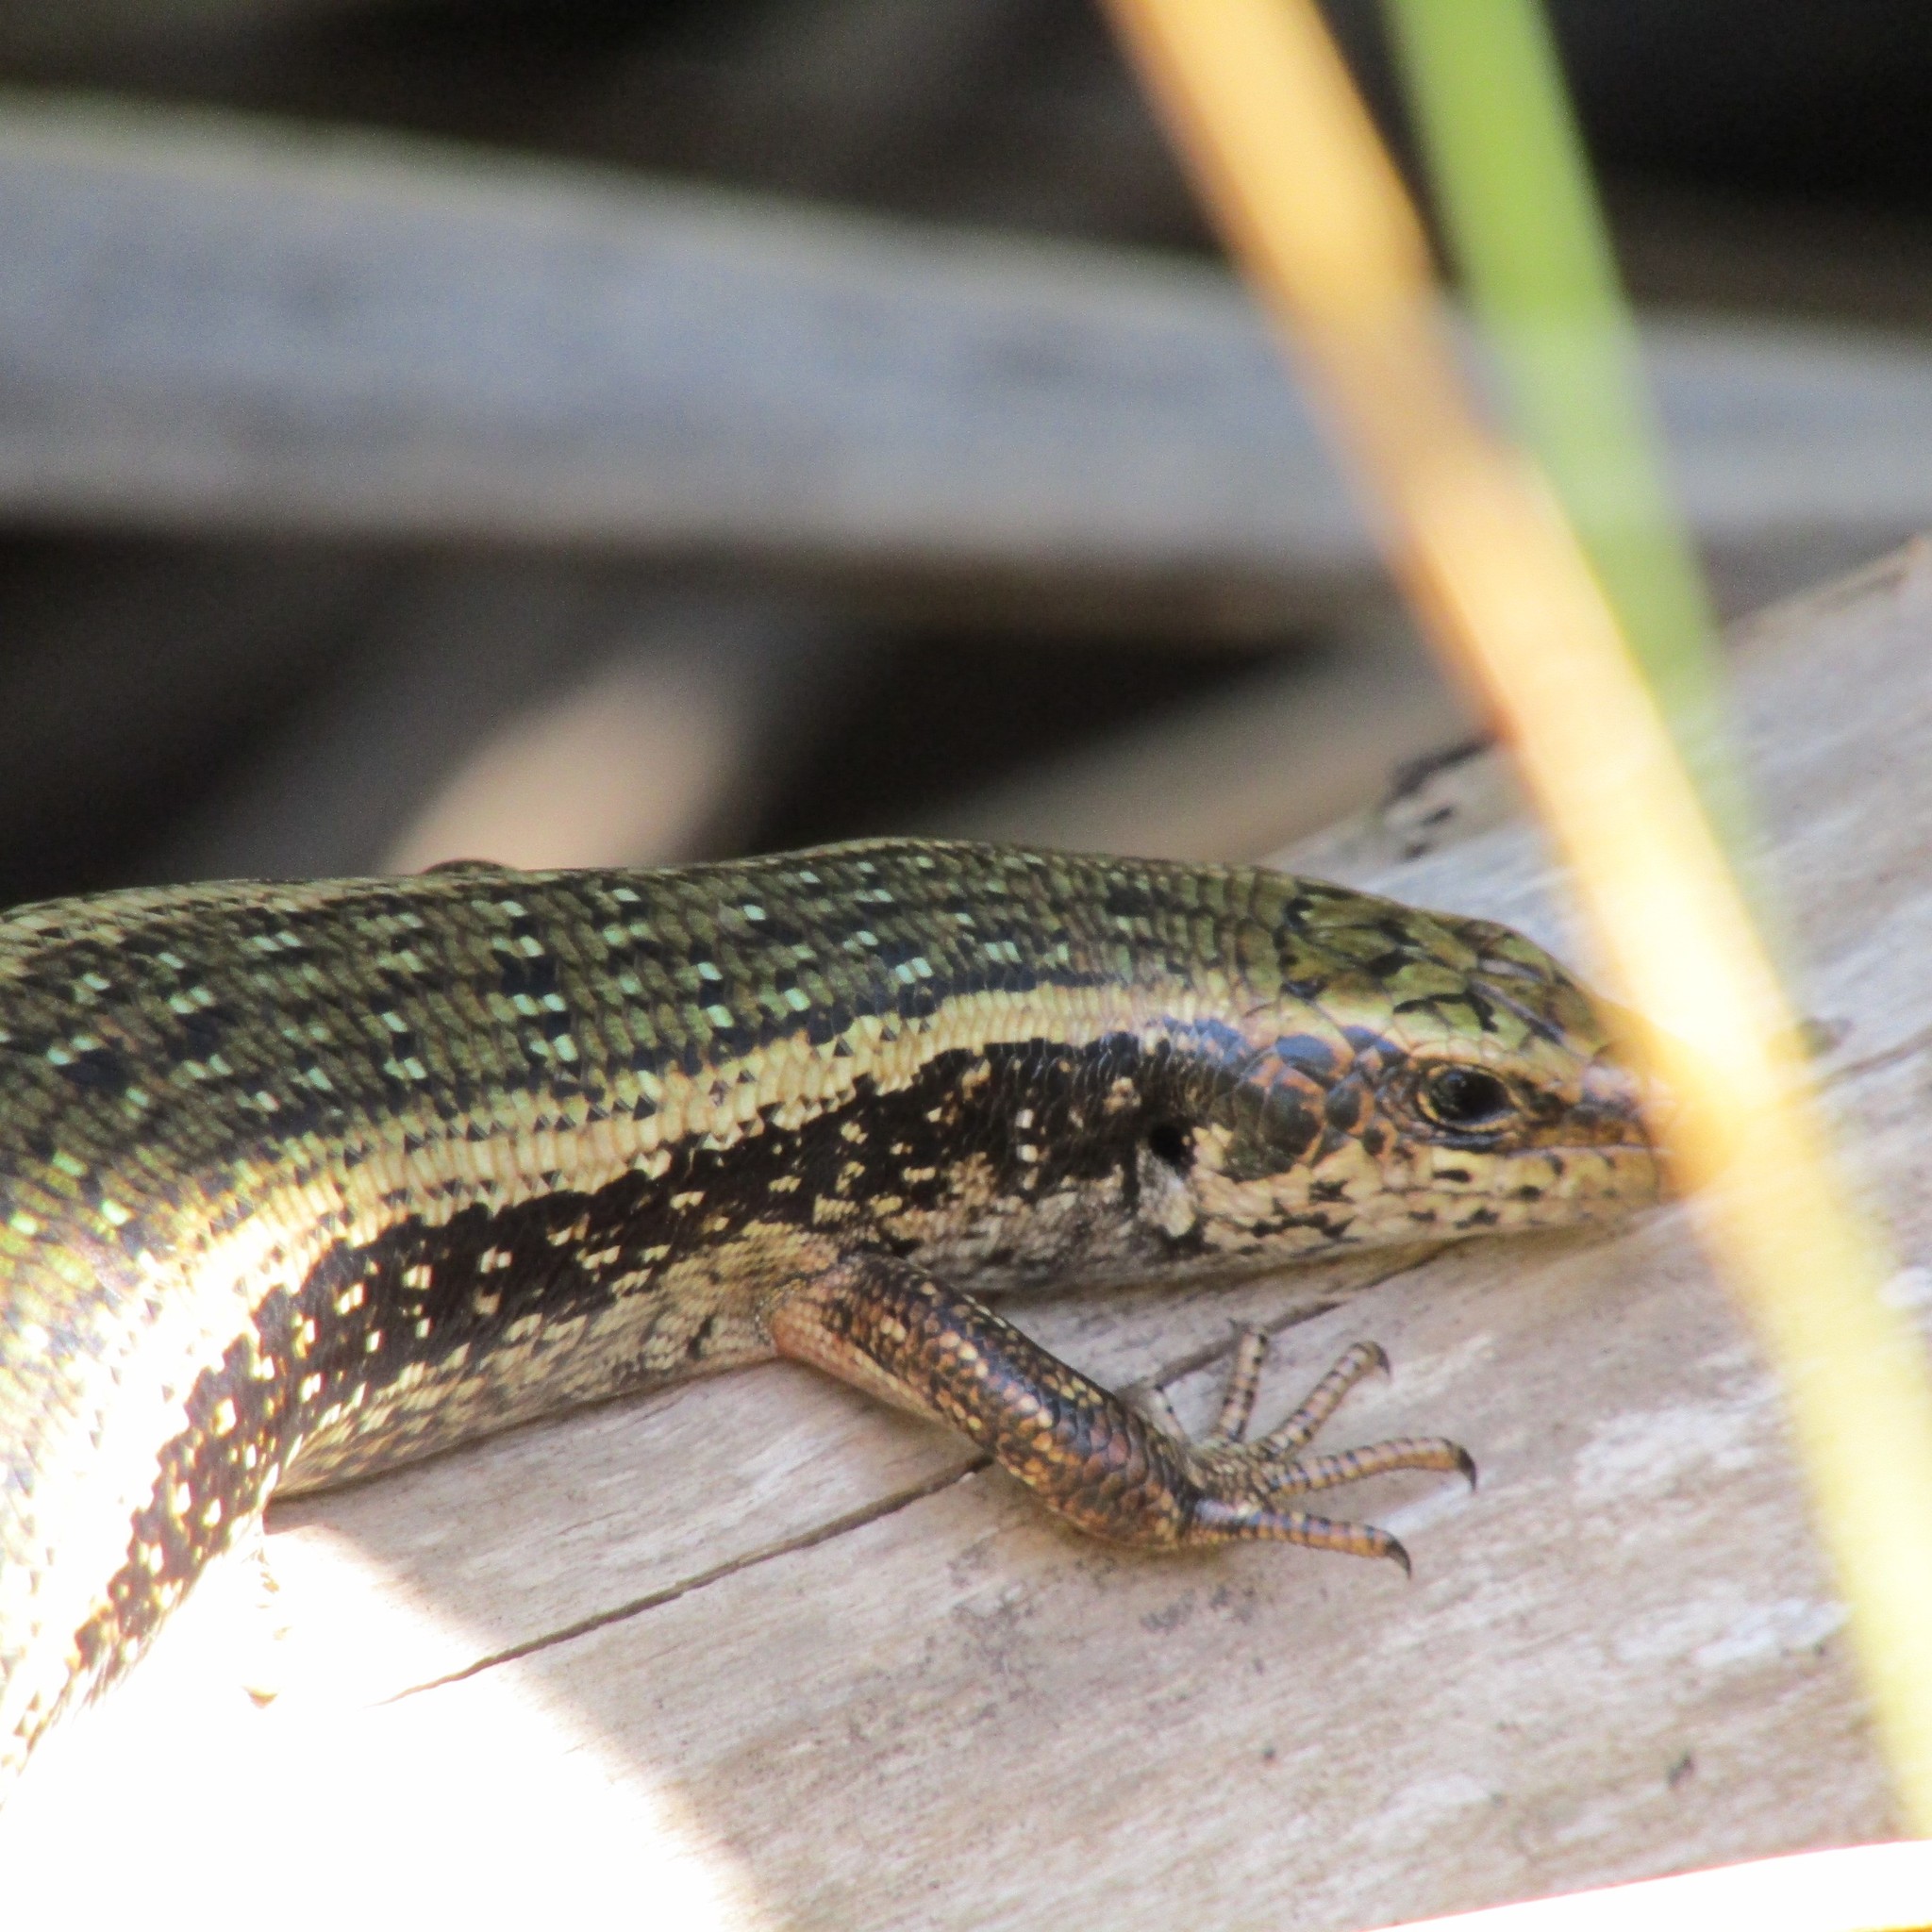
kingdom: Animalia
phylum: Chordata
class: Squamata
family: Scincidae
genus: Oligosoma
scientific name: Oligosoma kokowai
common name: Northern spotted skink
